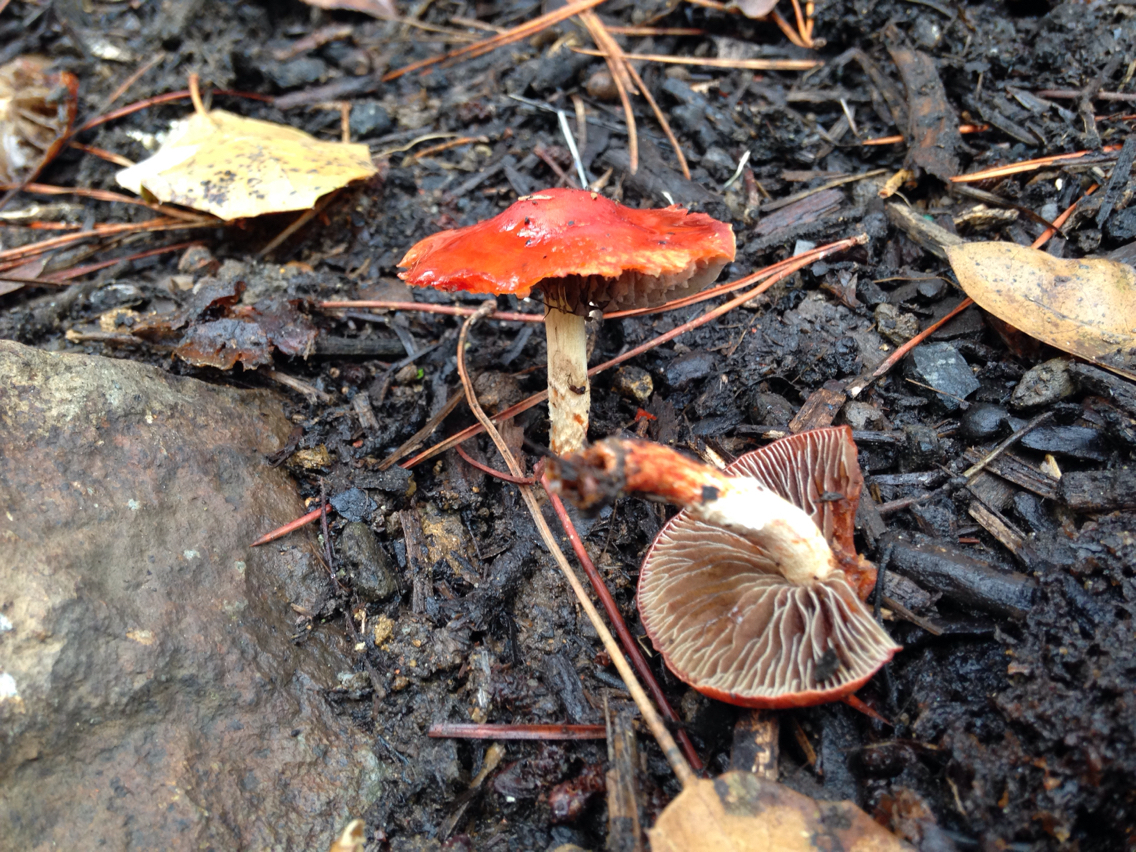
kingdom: Fungi
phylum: Basidiomycota
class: Agaricomycetes
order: Agaricales
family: Strophariaceae
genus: Leratiomyces
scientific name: Leratiomyces ceres
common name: Redlead roundhead
